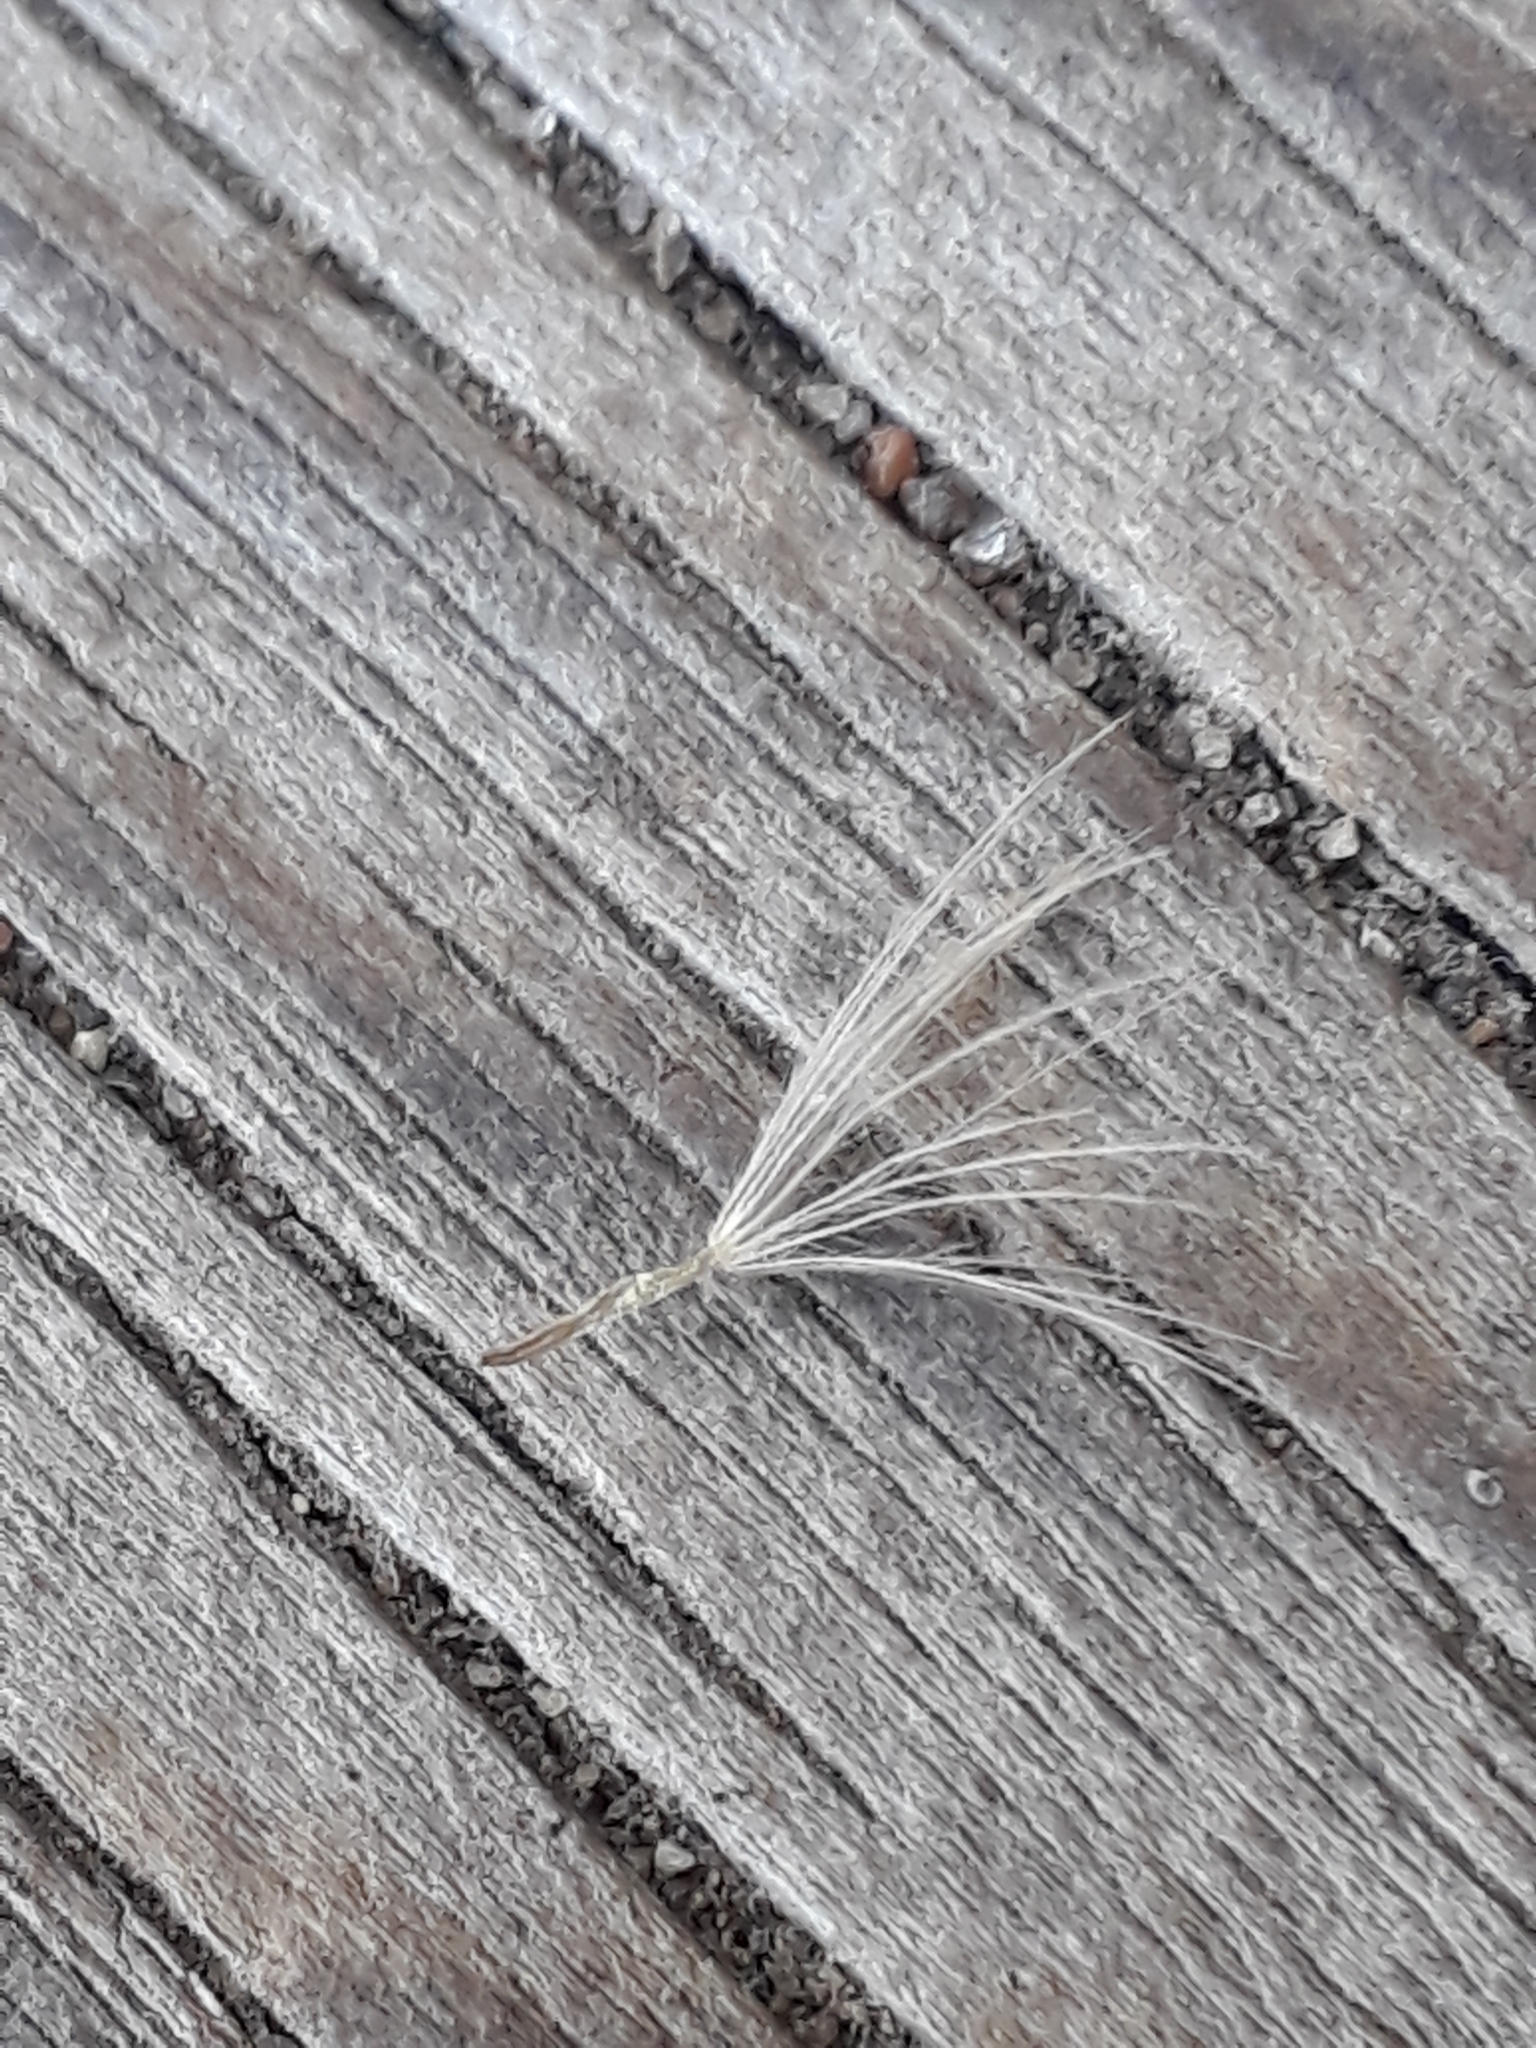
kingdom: Plantae
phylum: Tracheophyta
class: Magnoliopsida
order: Asterales
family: Asteraceae
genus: Scorzoneroides
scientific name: Scorzoneroides autumnalis
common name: Autumn hawkbit
